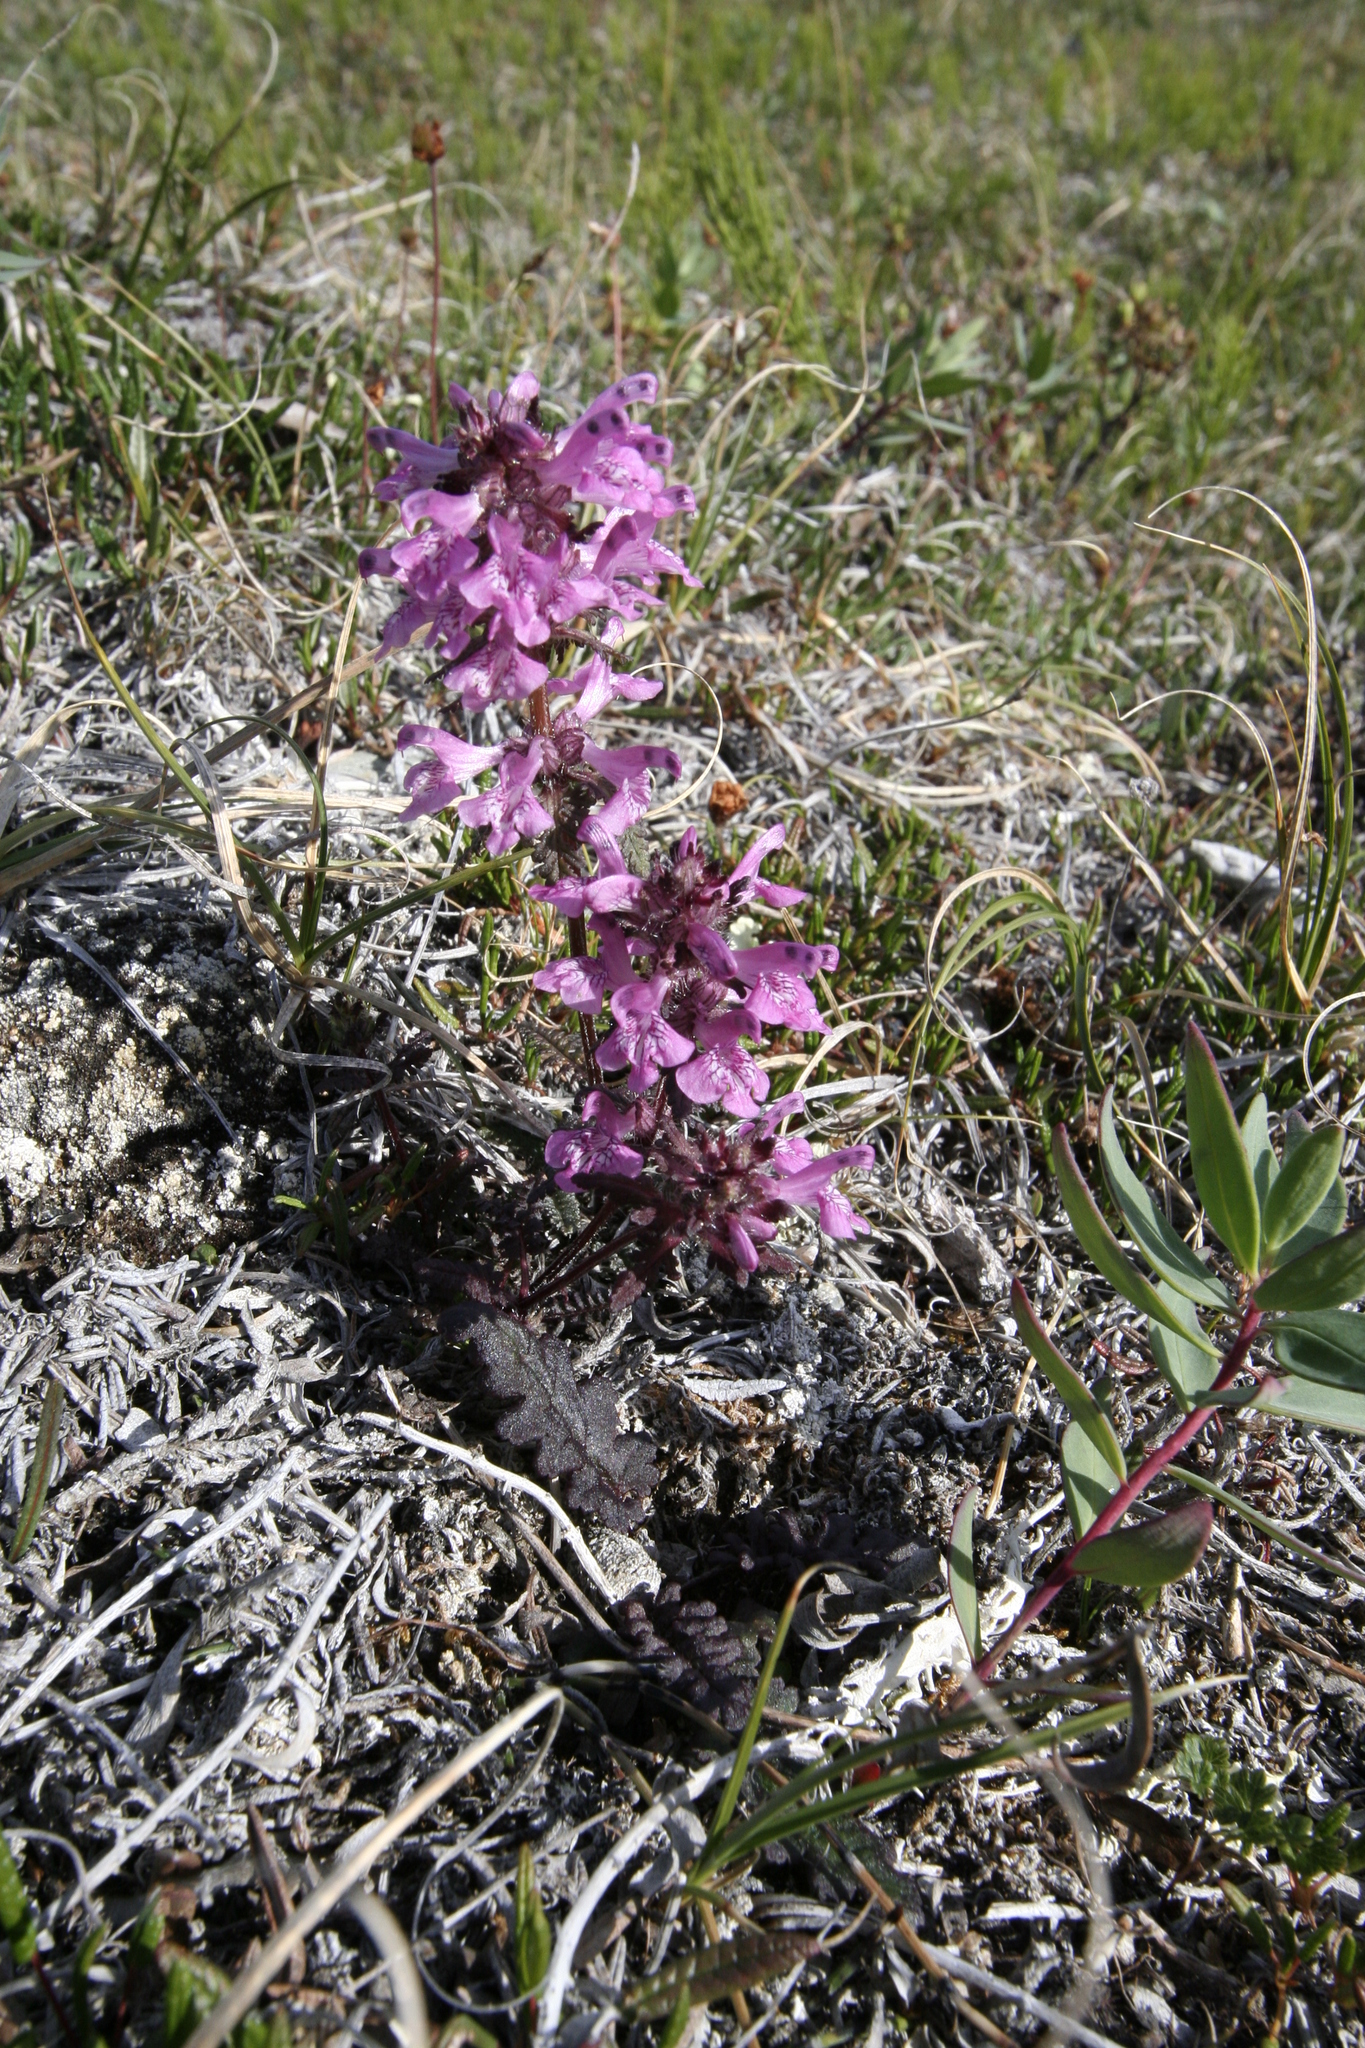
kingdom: Plantae
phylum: Tracheophyta
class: Magnoliopsida
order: Lamiales
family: Orobanchaceae
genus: Pedicularis
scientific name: Pedicularis verticillata
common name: Whorled lousewort
